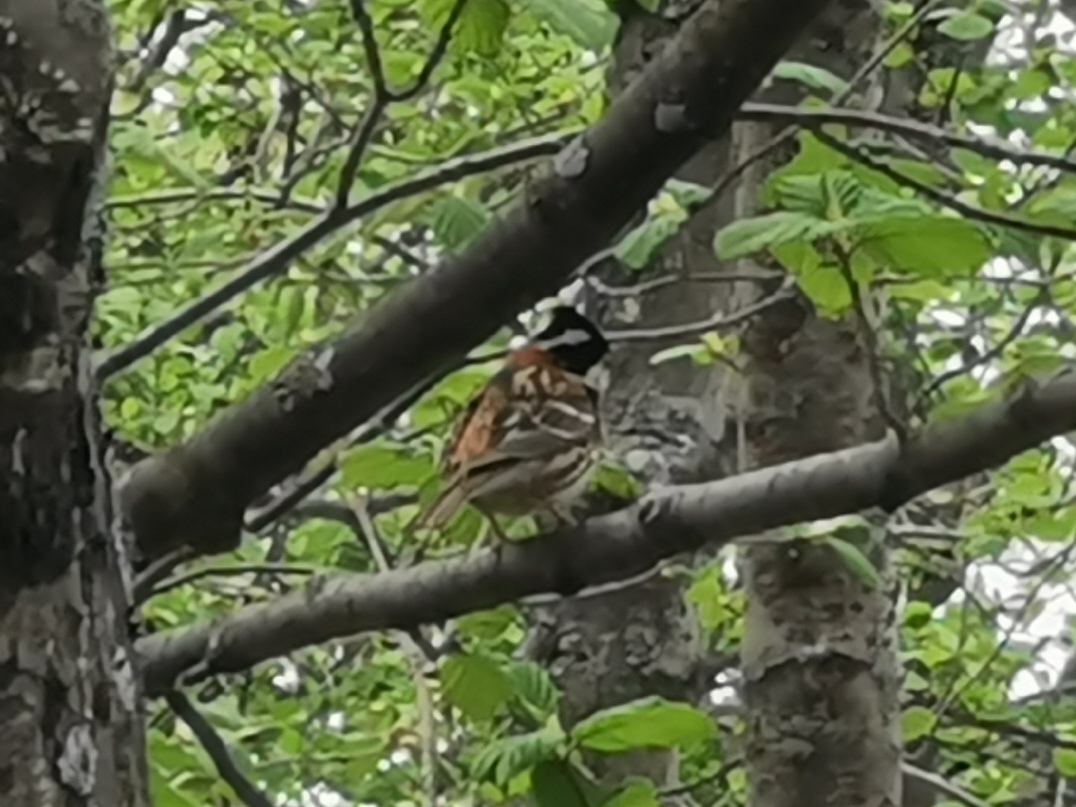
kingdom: Animalia
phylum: Chordata
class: Aves
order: Passeriformes
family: Emberizidae
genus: Emberiza
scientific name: Emberiza rustica
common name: Rustic bunting
